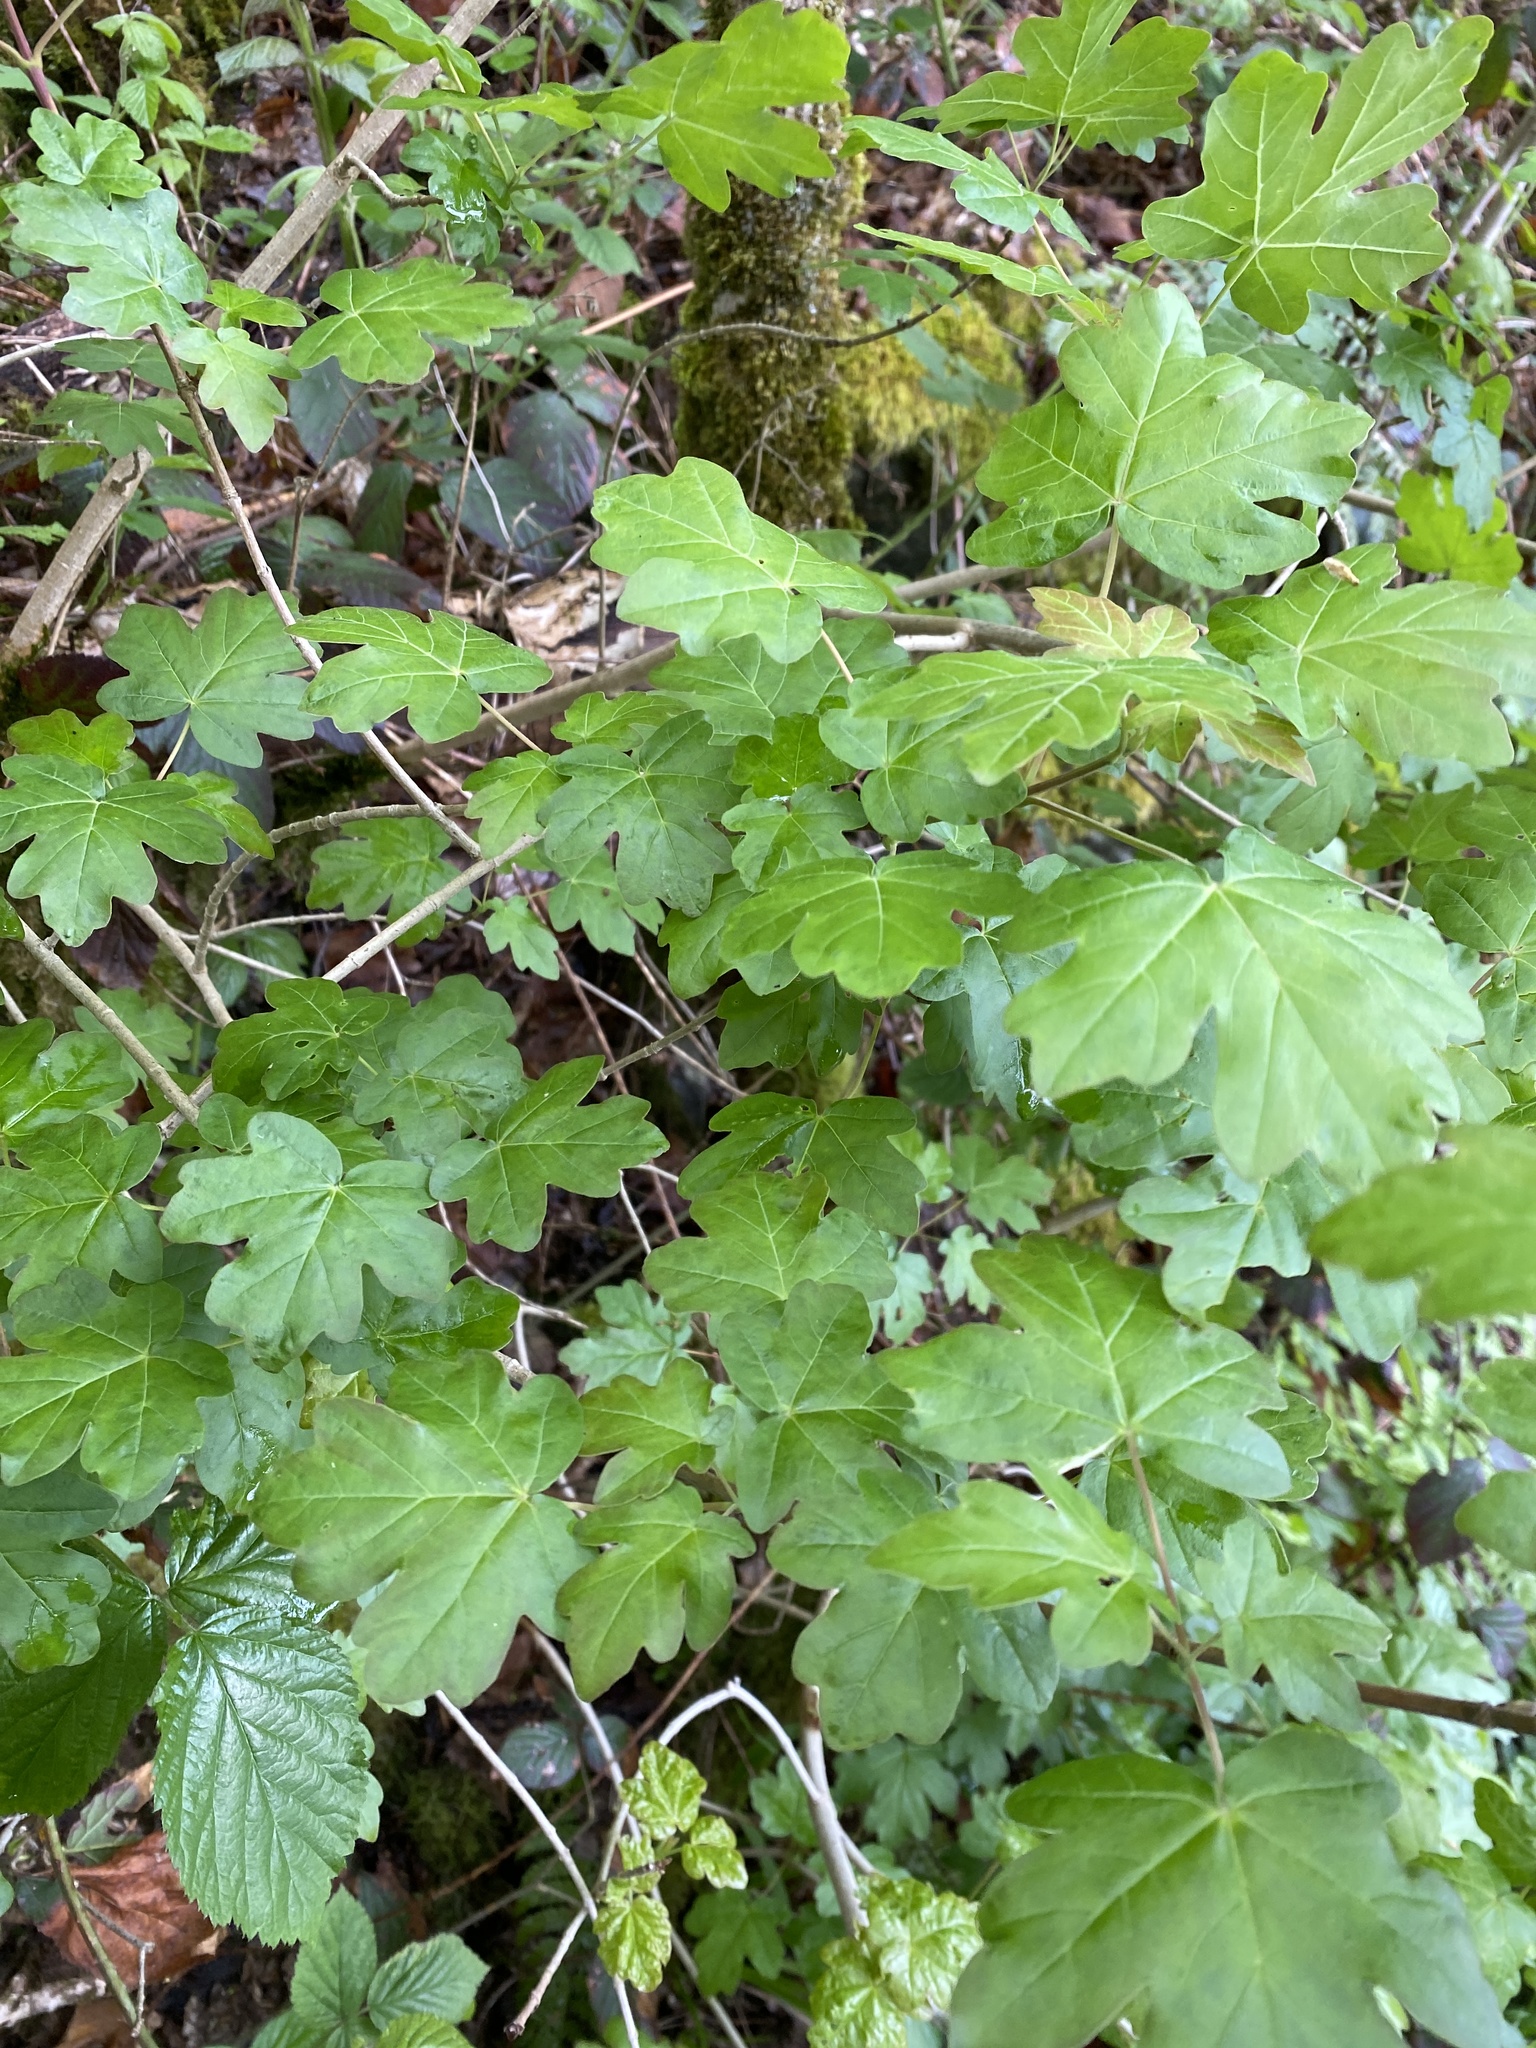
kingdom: Plantae
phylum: Tracheophyta
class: Magnoliopsida
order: Sapindales
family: Sapindaceae
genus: Acer
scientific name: Acer campestre
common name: Field maple
